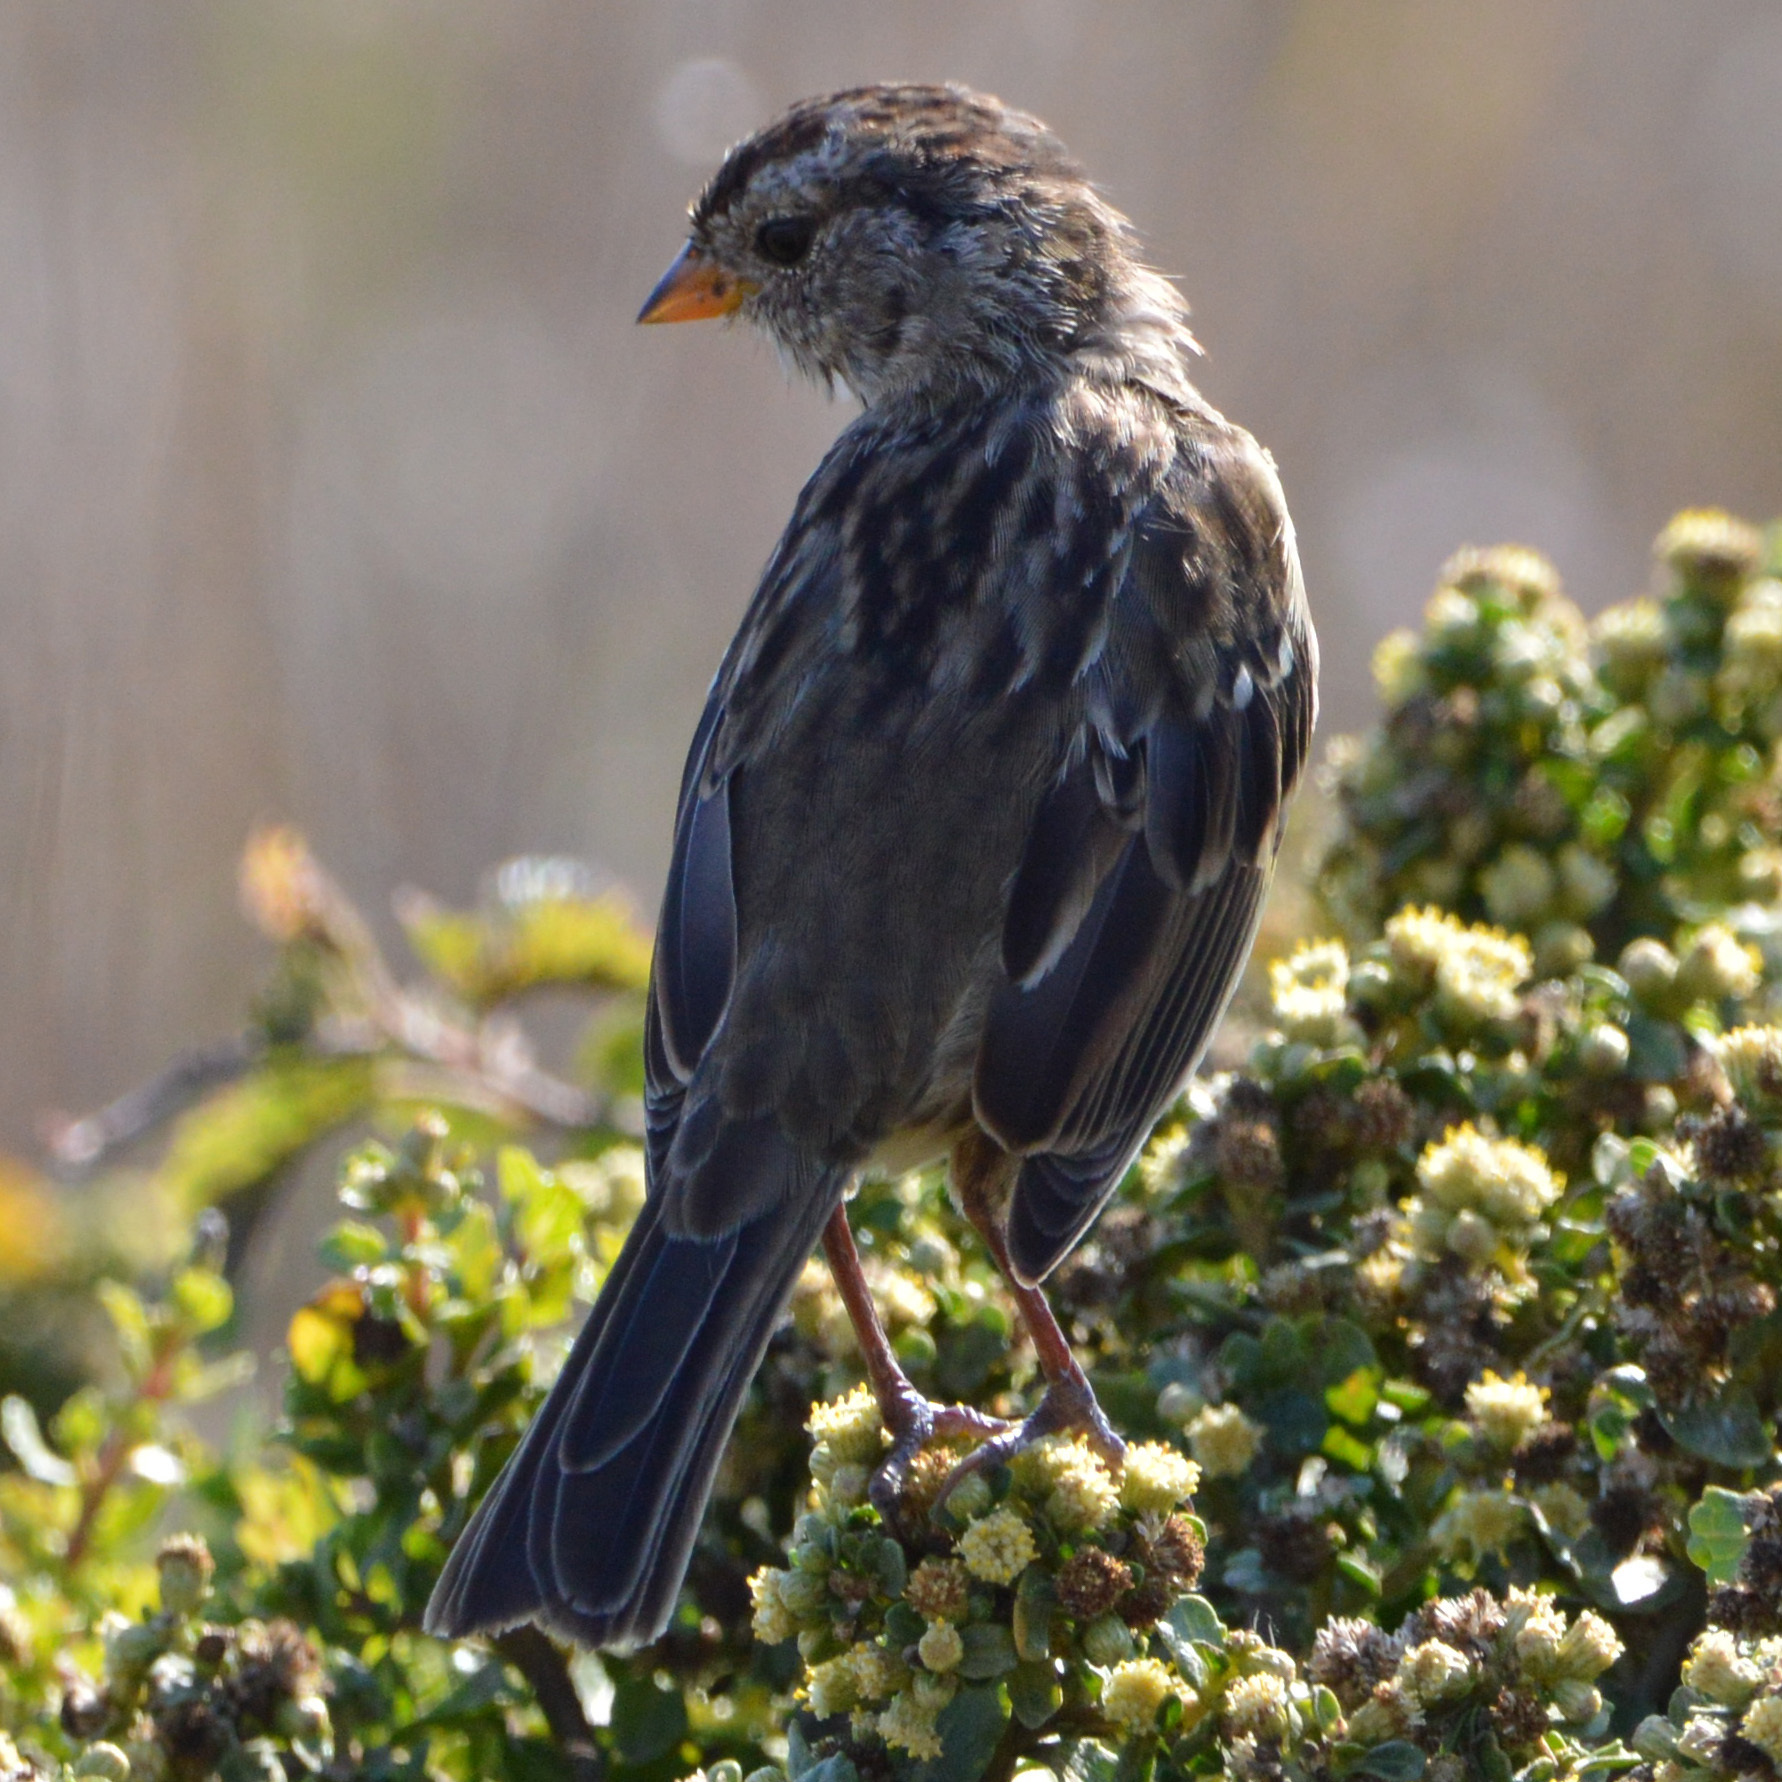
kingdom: Animalia
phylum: Chordata
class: Aves
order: Passeriformes
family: Passerellidae
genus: Zonotrichia
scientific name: Zonotrichia leucophrys
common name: White-crowned sparrow
